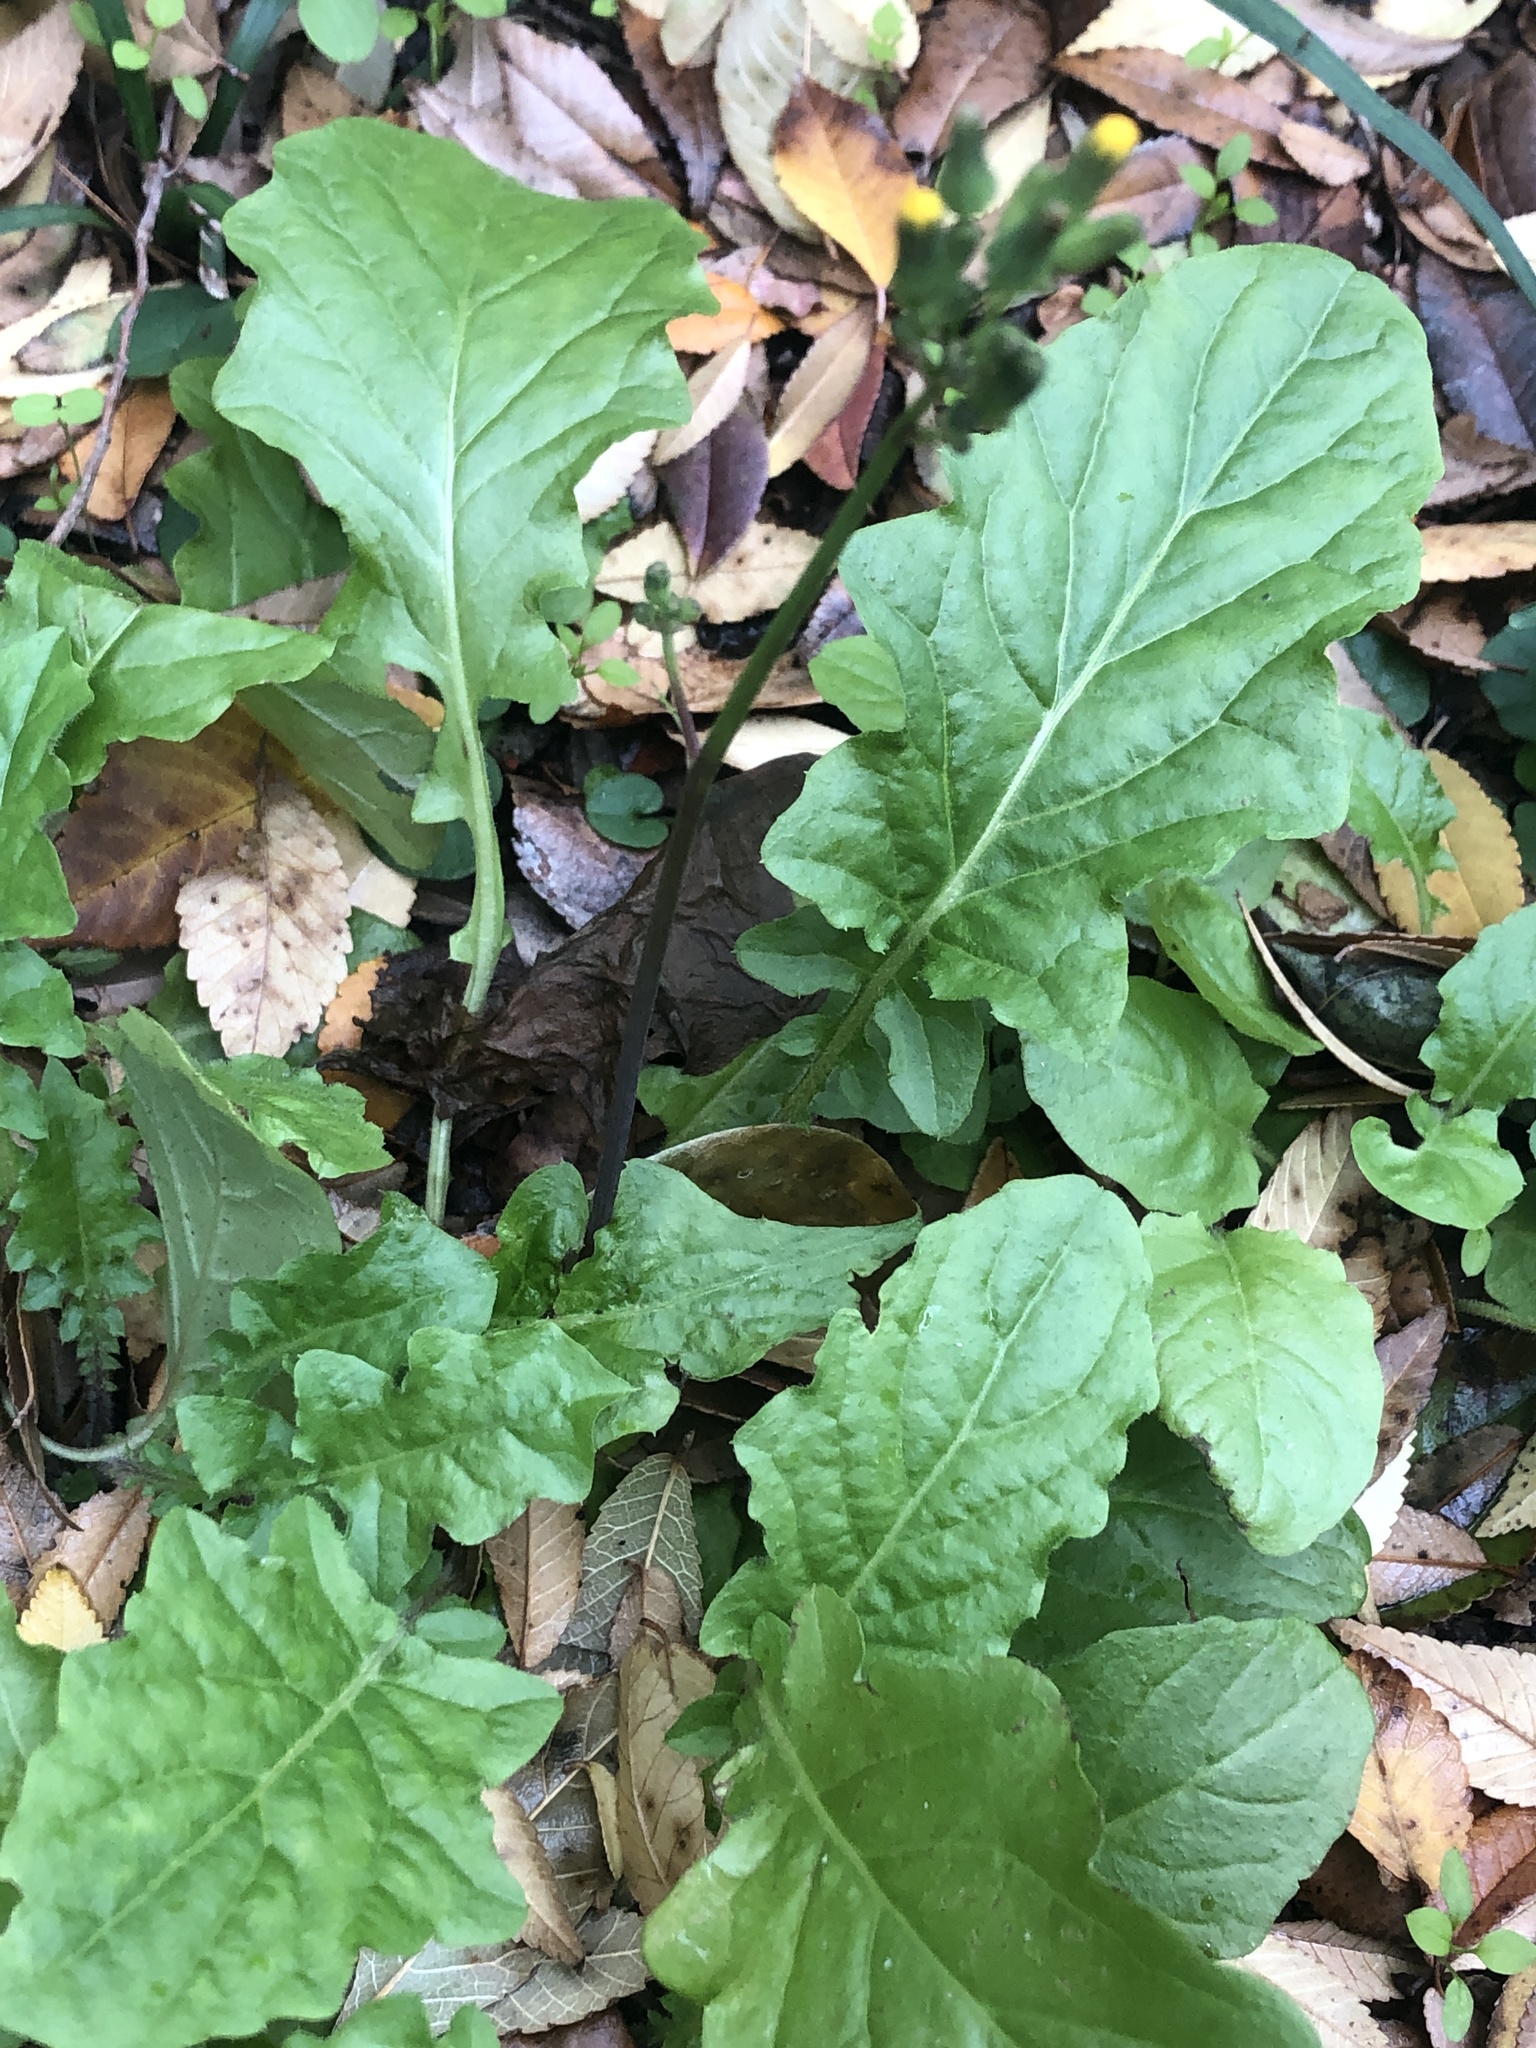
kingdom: Plantae
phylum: Tracheophyta
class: Magnoliopsida
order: Asterales
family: Asteraceae
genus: Youngia
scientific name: Youngia japonica
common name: Oriental false hawksbeard
